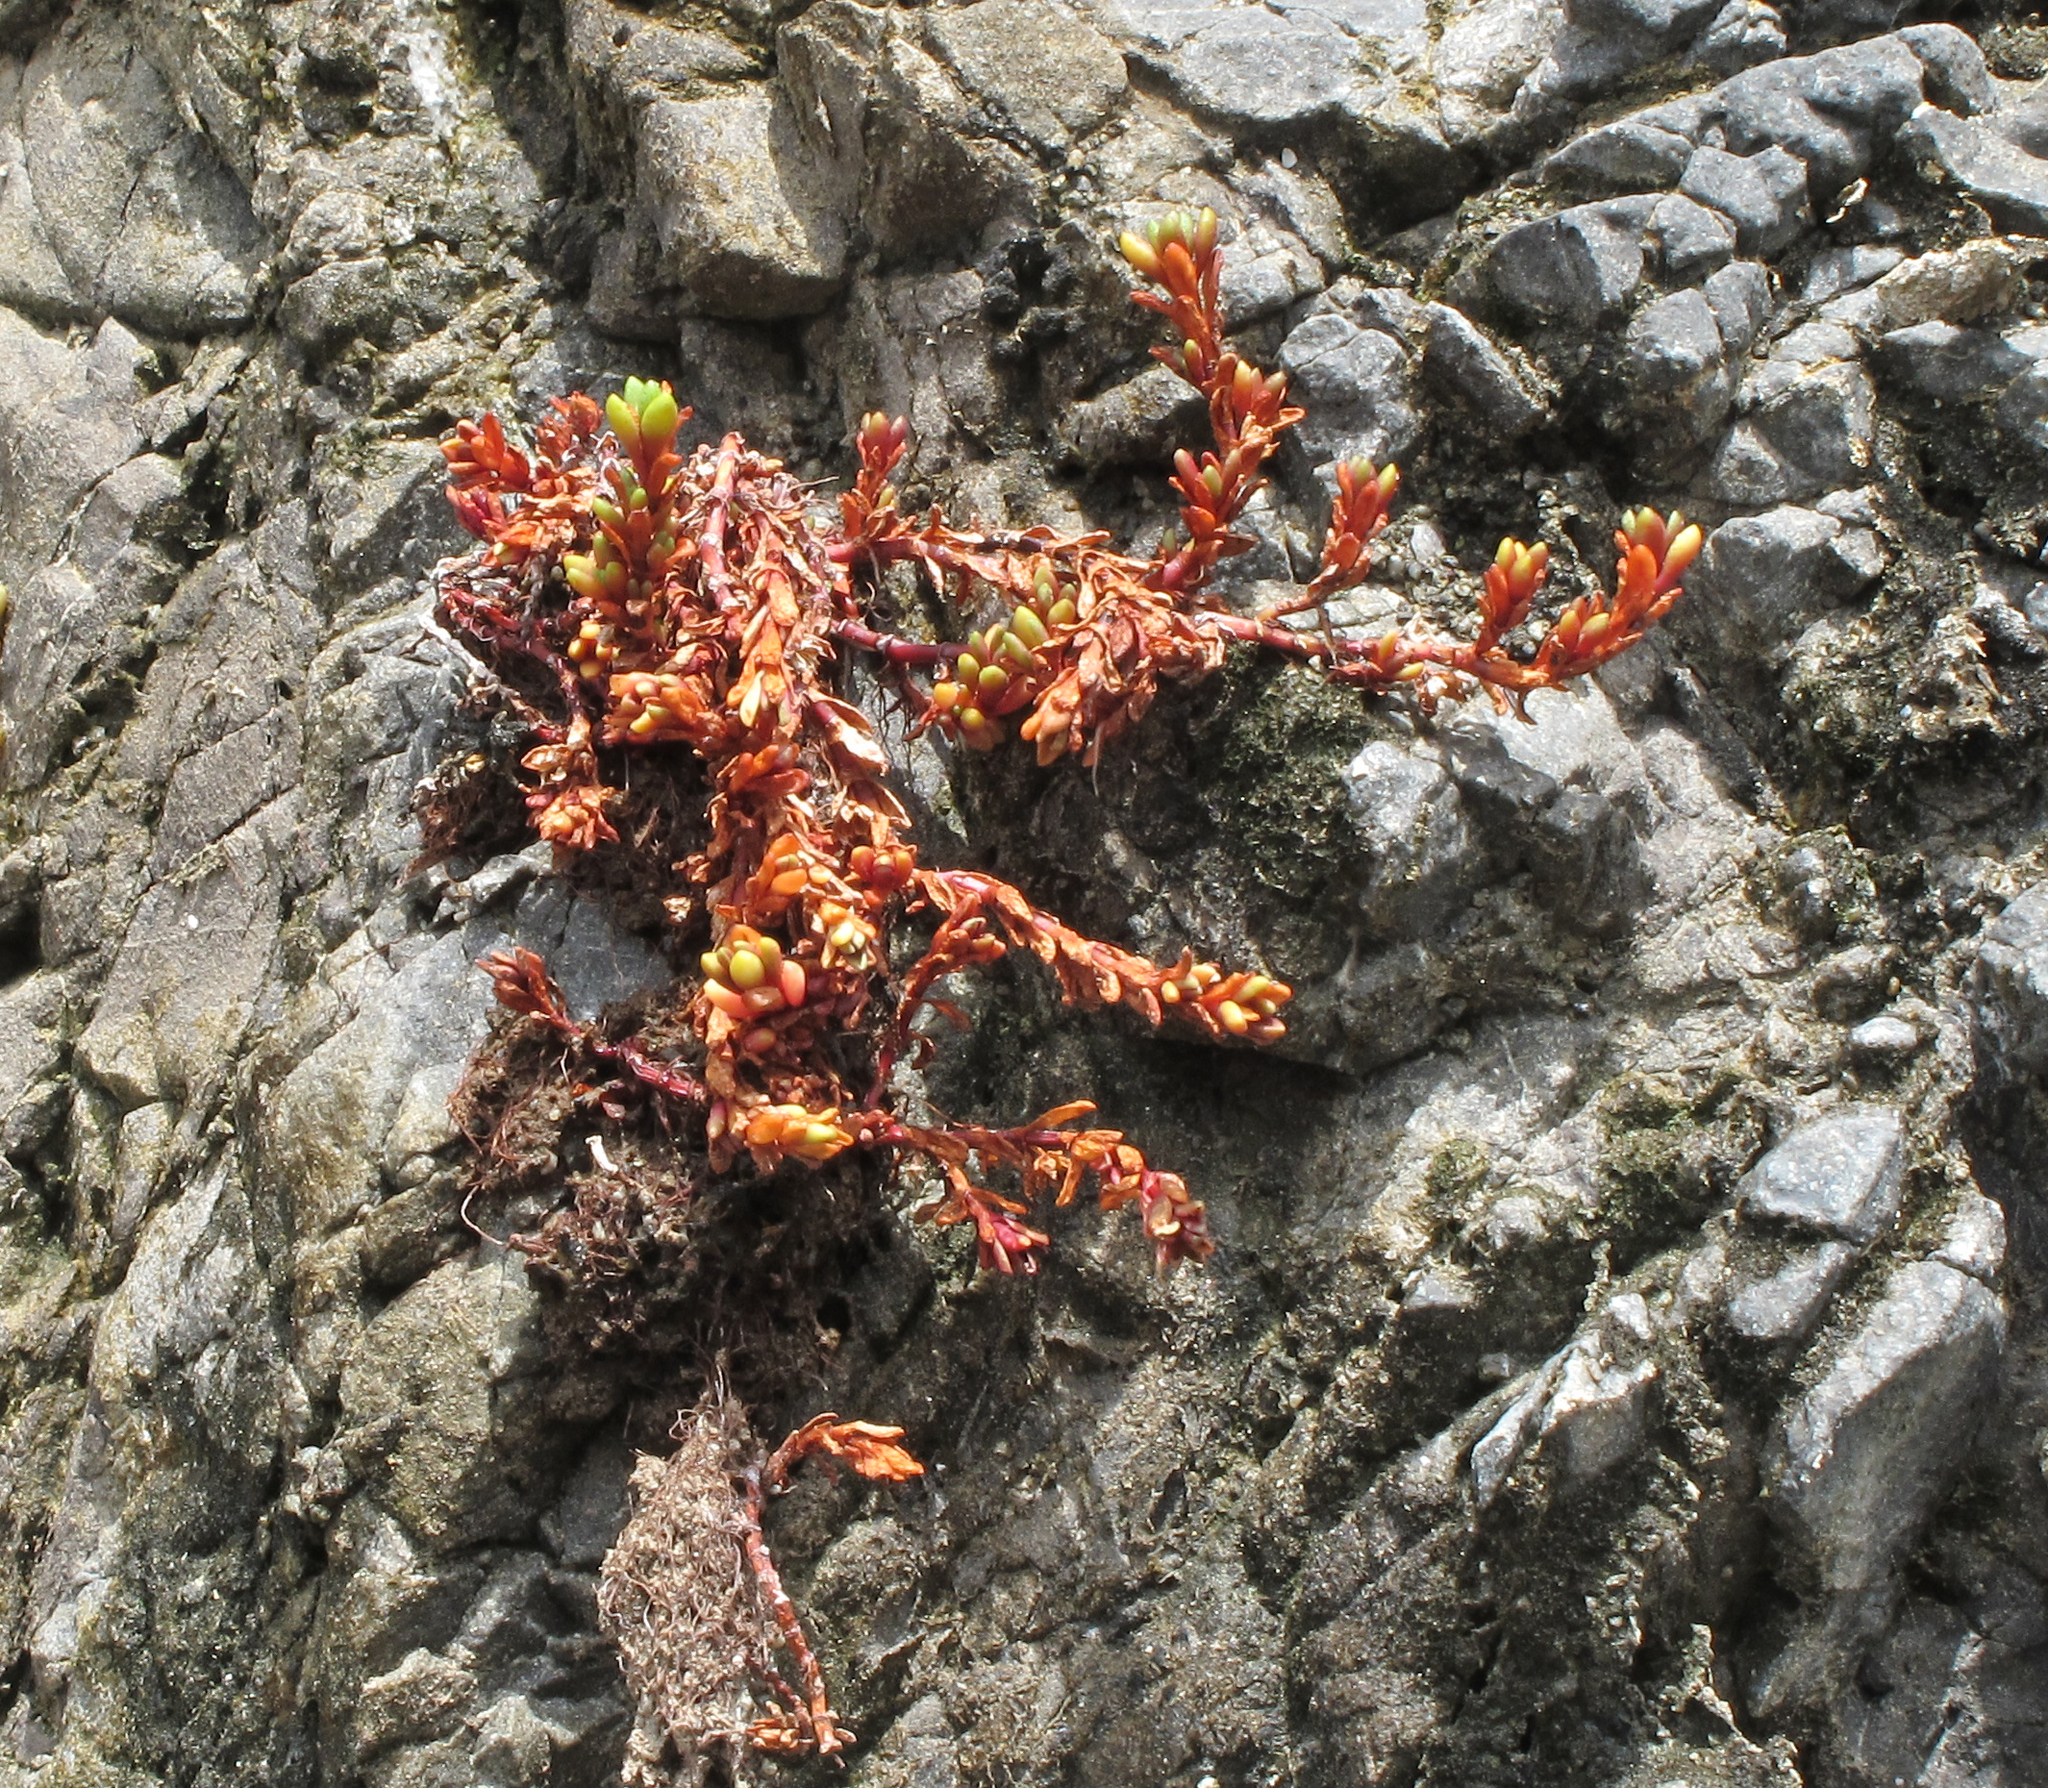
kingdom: Plantae
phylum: Tracheophyta
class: Magnoliopsida
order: Saxifragales
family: Crassulaceae
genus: Crassula
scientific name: Crassula moschata
